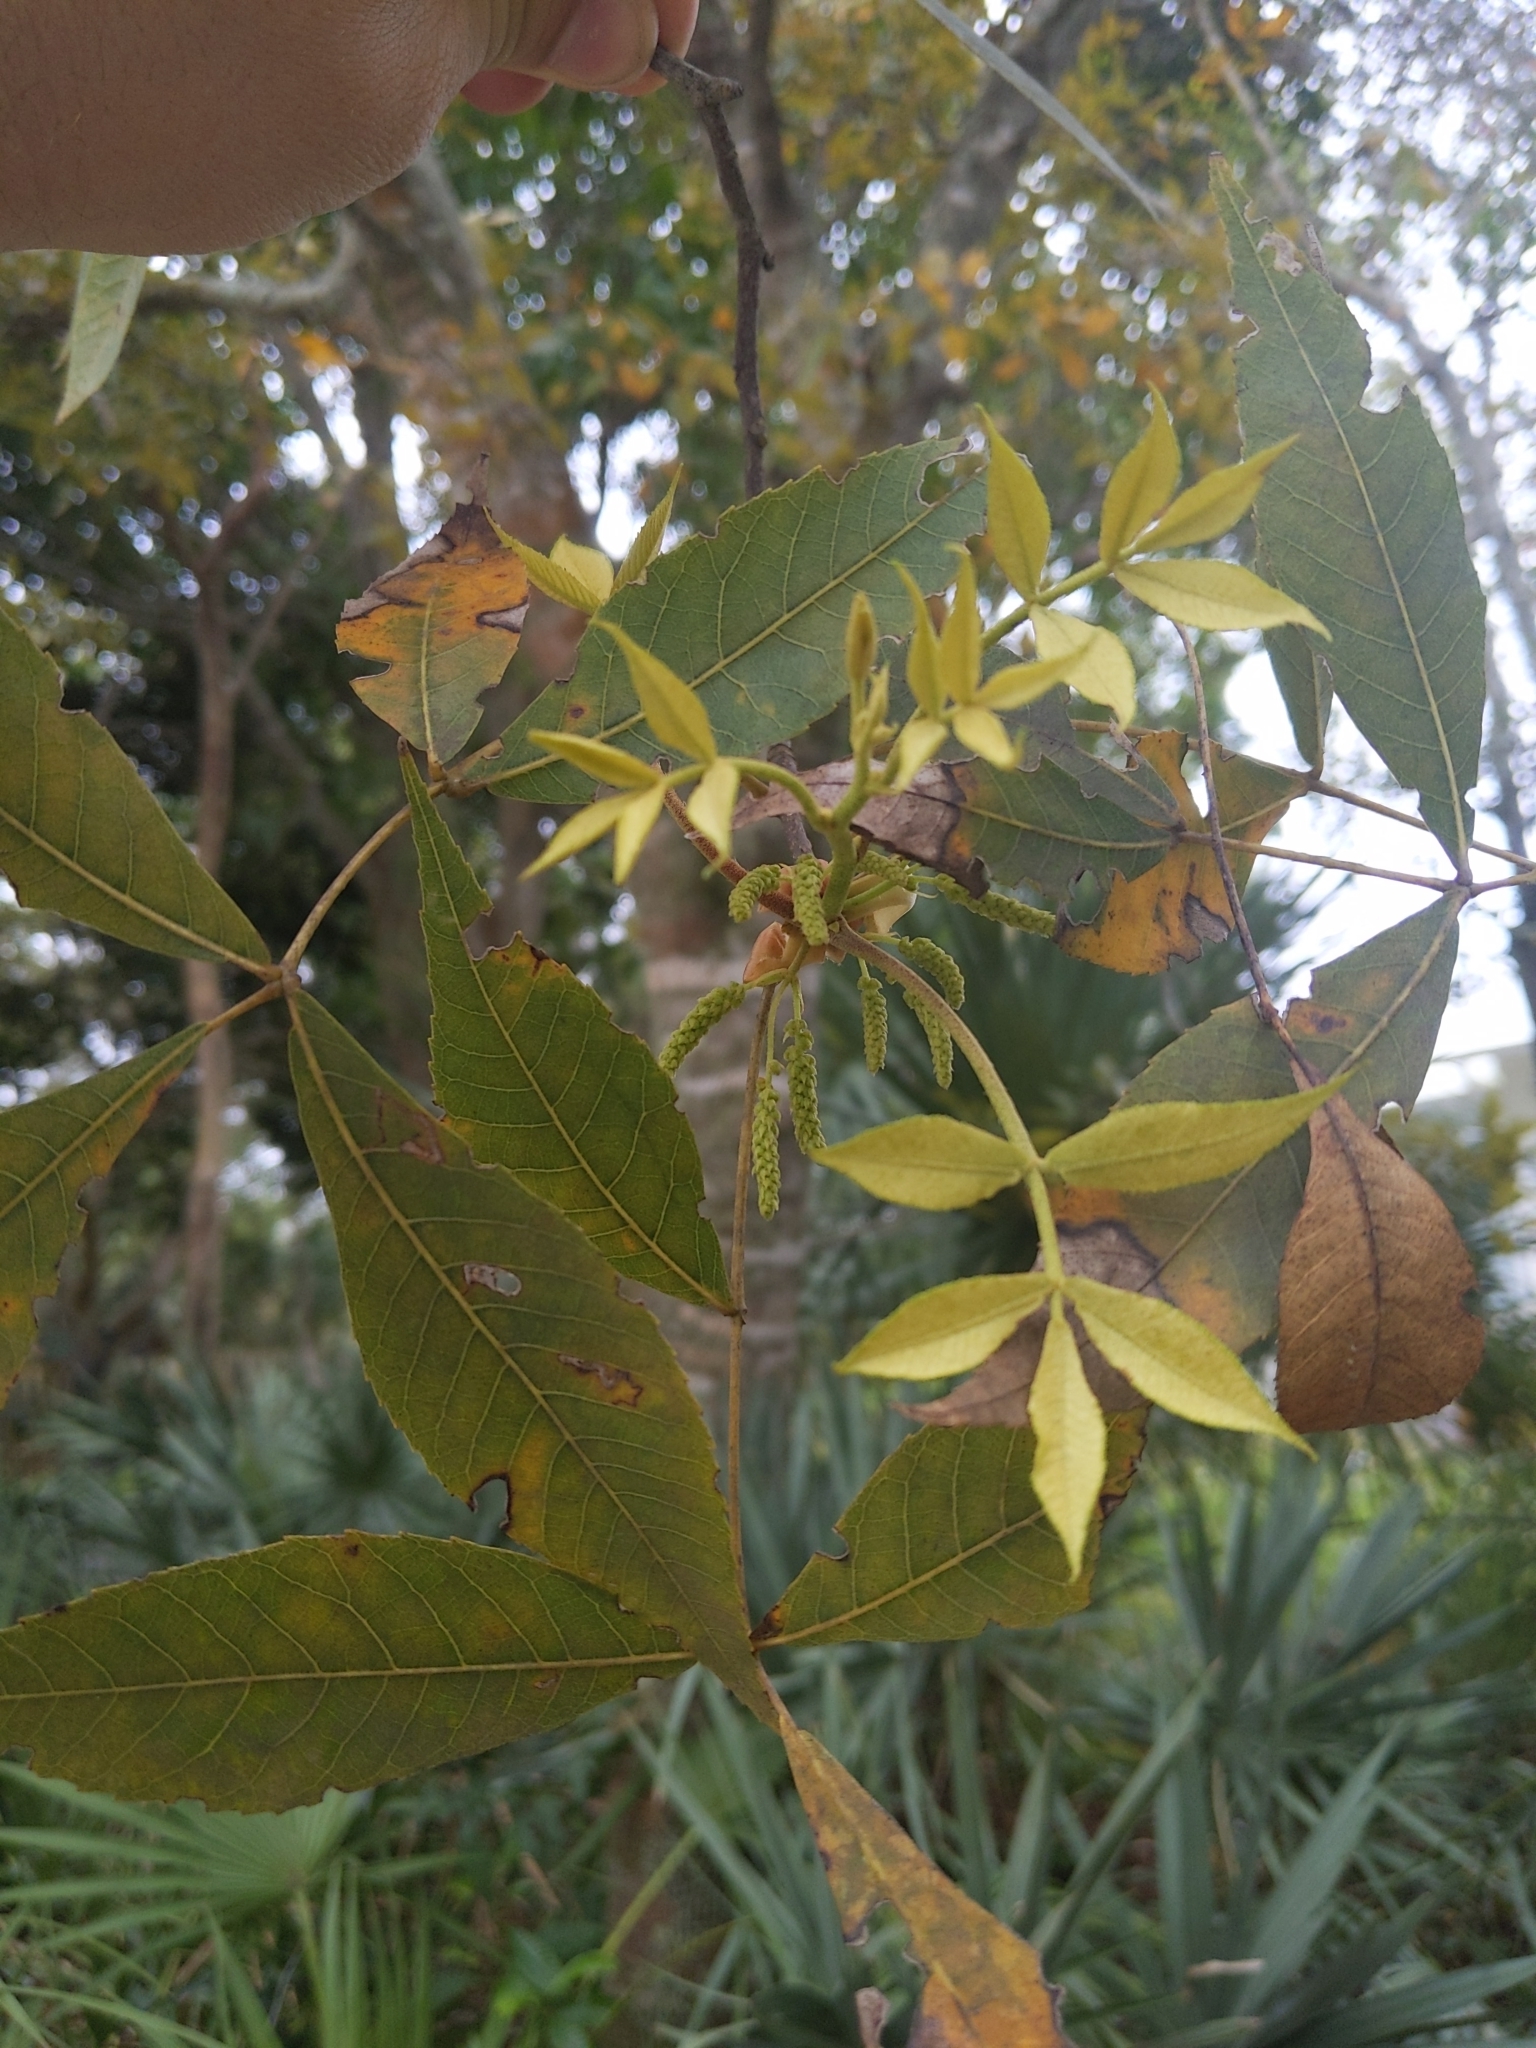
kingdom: Plantae
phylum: Tracheophyta
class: Magnoliopsida
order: Fagales
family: Juglandaceae
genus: Carya
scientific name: Carya floridana
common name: Scrub hickory
